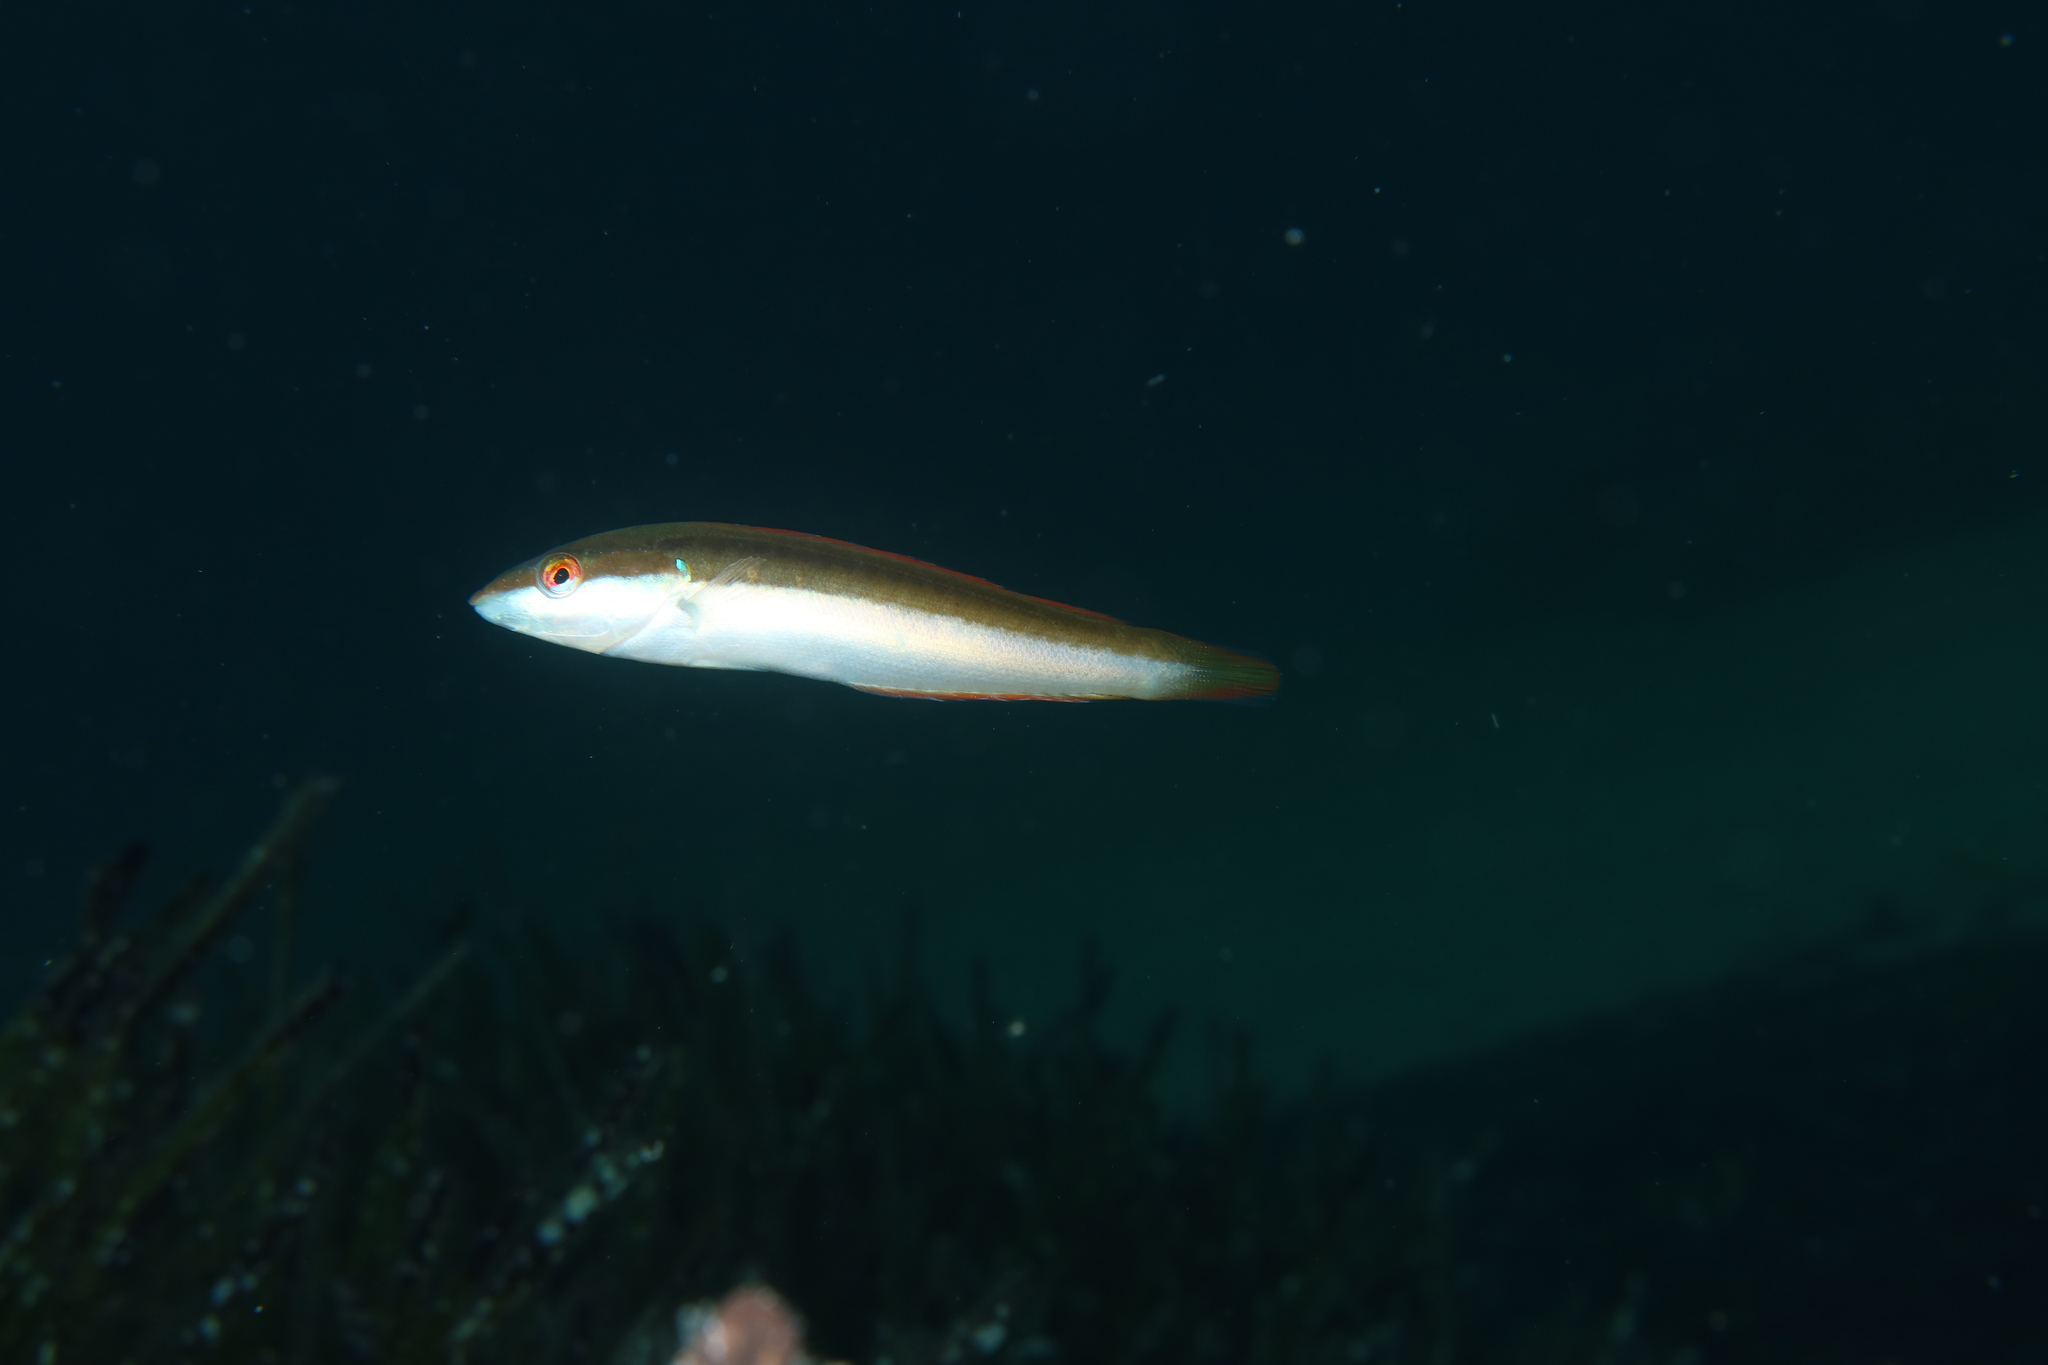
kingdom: Animalia
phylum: Chordata
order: Perciformes
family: Labridae
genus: Coris
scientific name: Coris julis
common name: Rainbow wrasse
